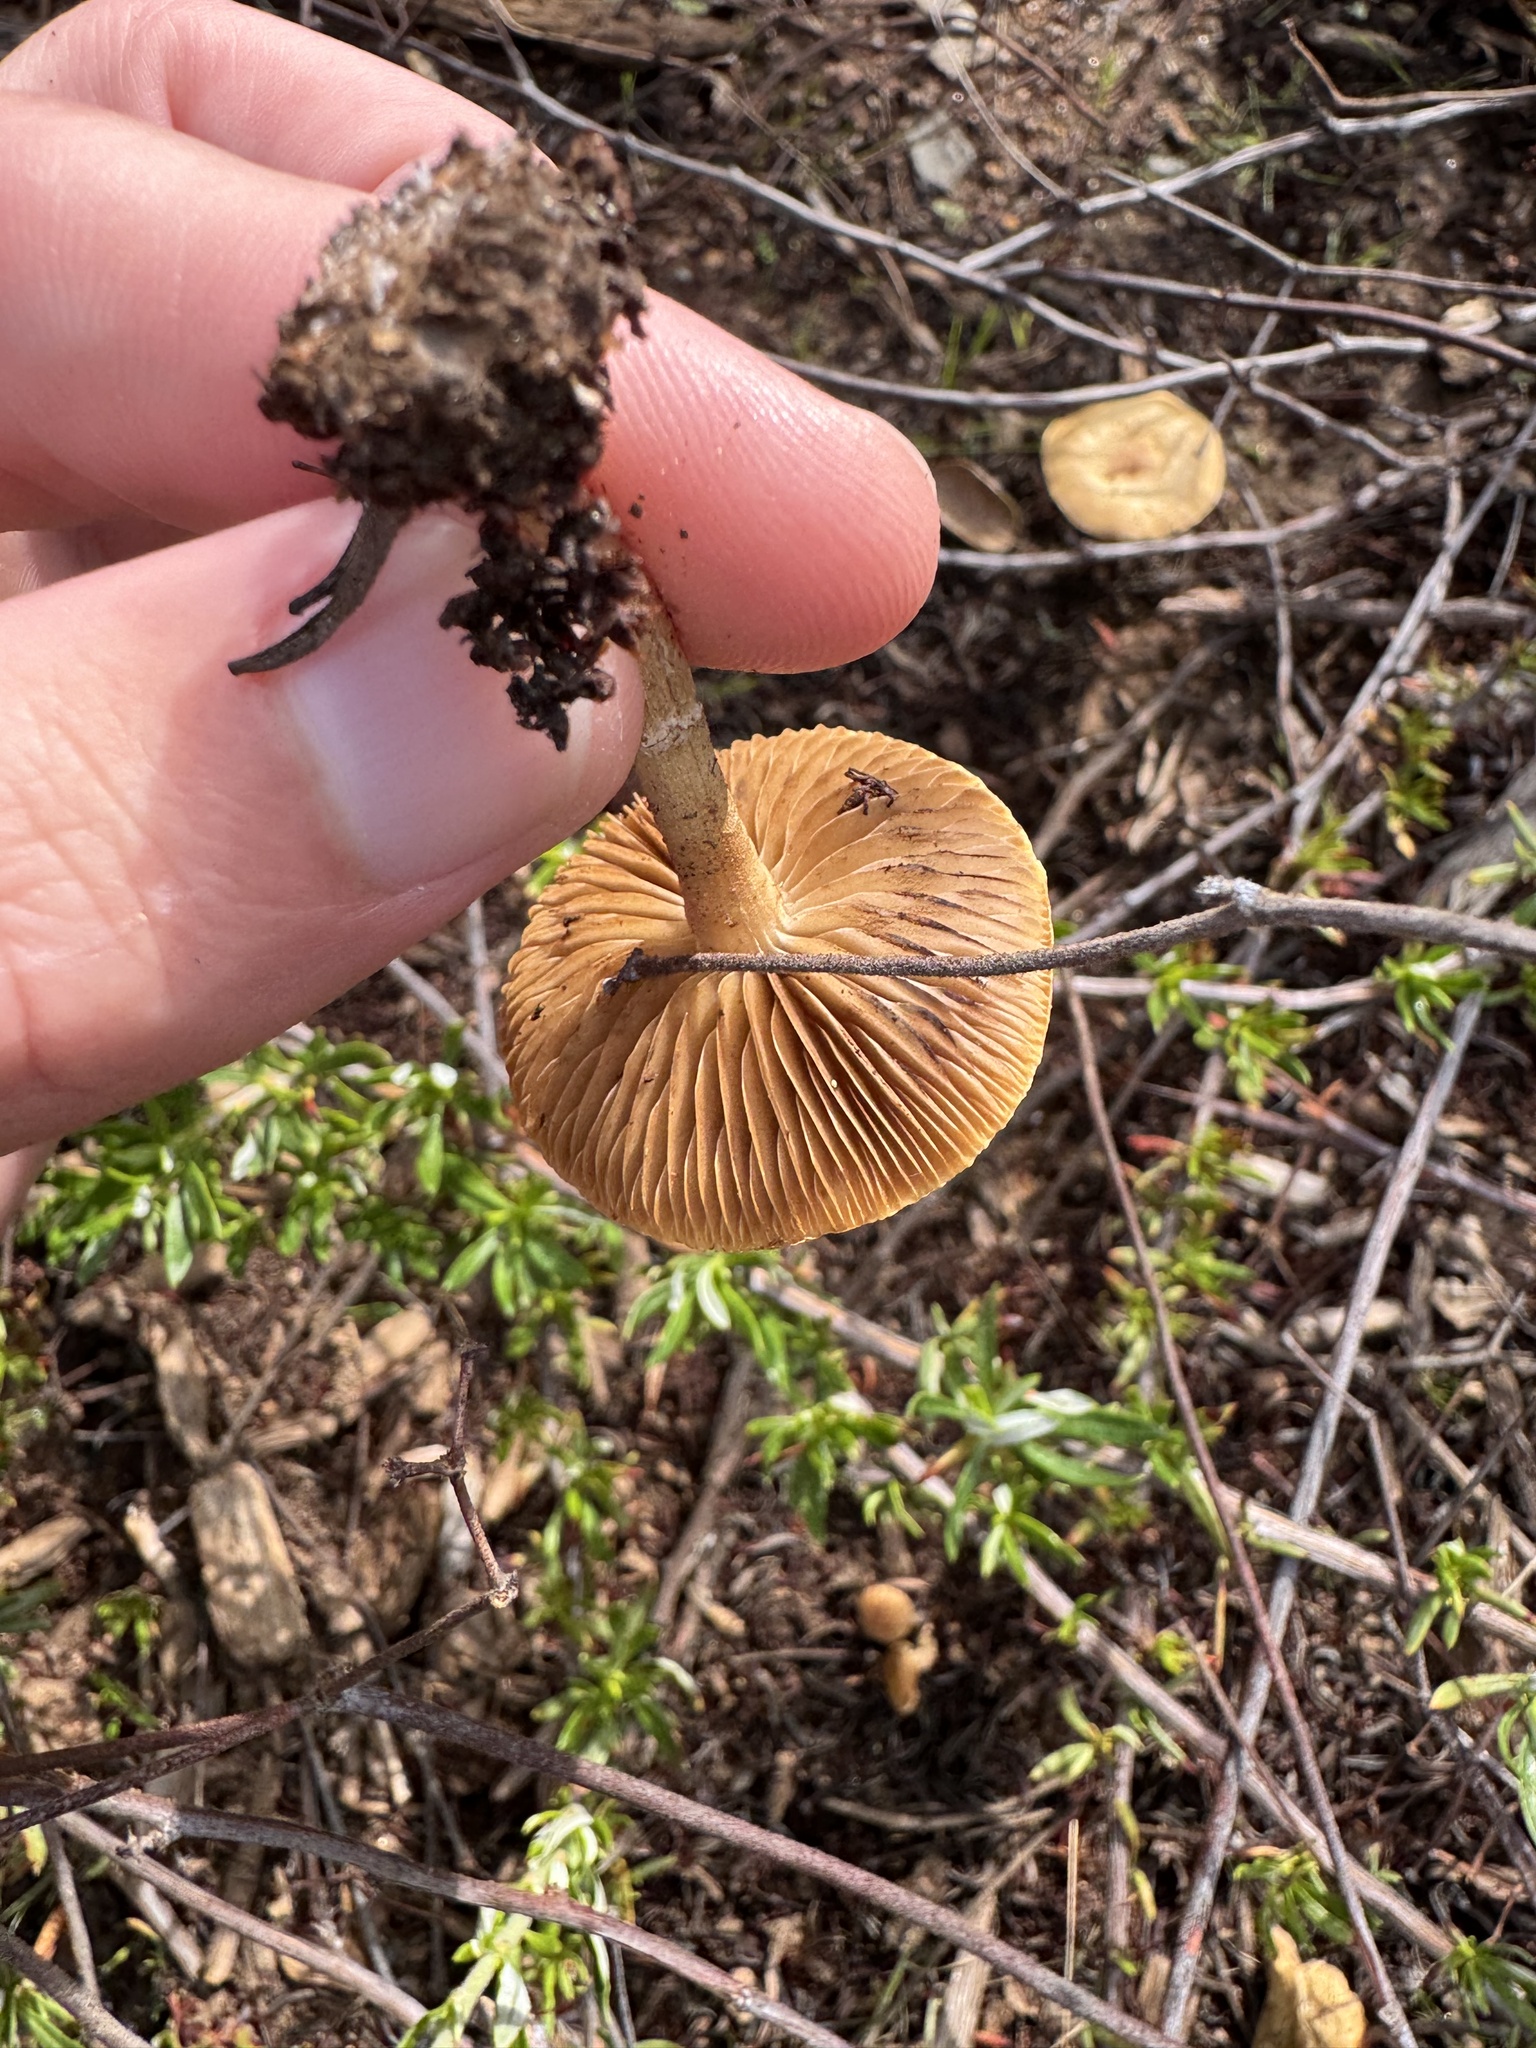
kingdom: Fungi
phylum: Basidiomycota
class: Agaricomycetes
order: Agaricales
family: Strophariaceae
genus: Agrocybe
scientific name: Agrocybe pediades
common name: Common fieldcap
